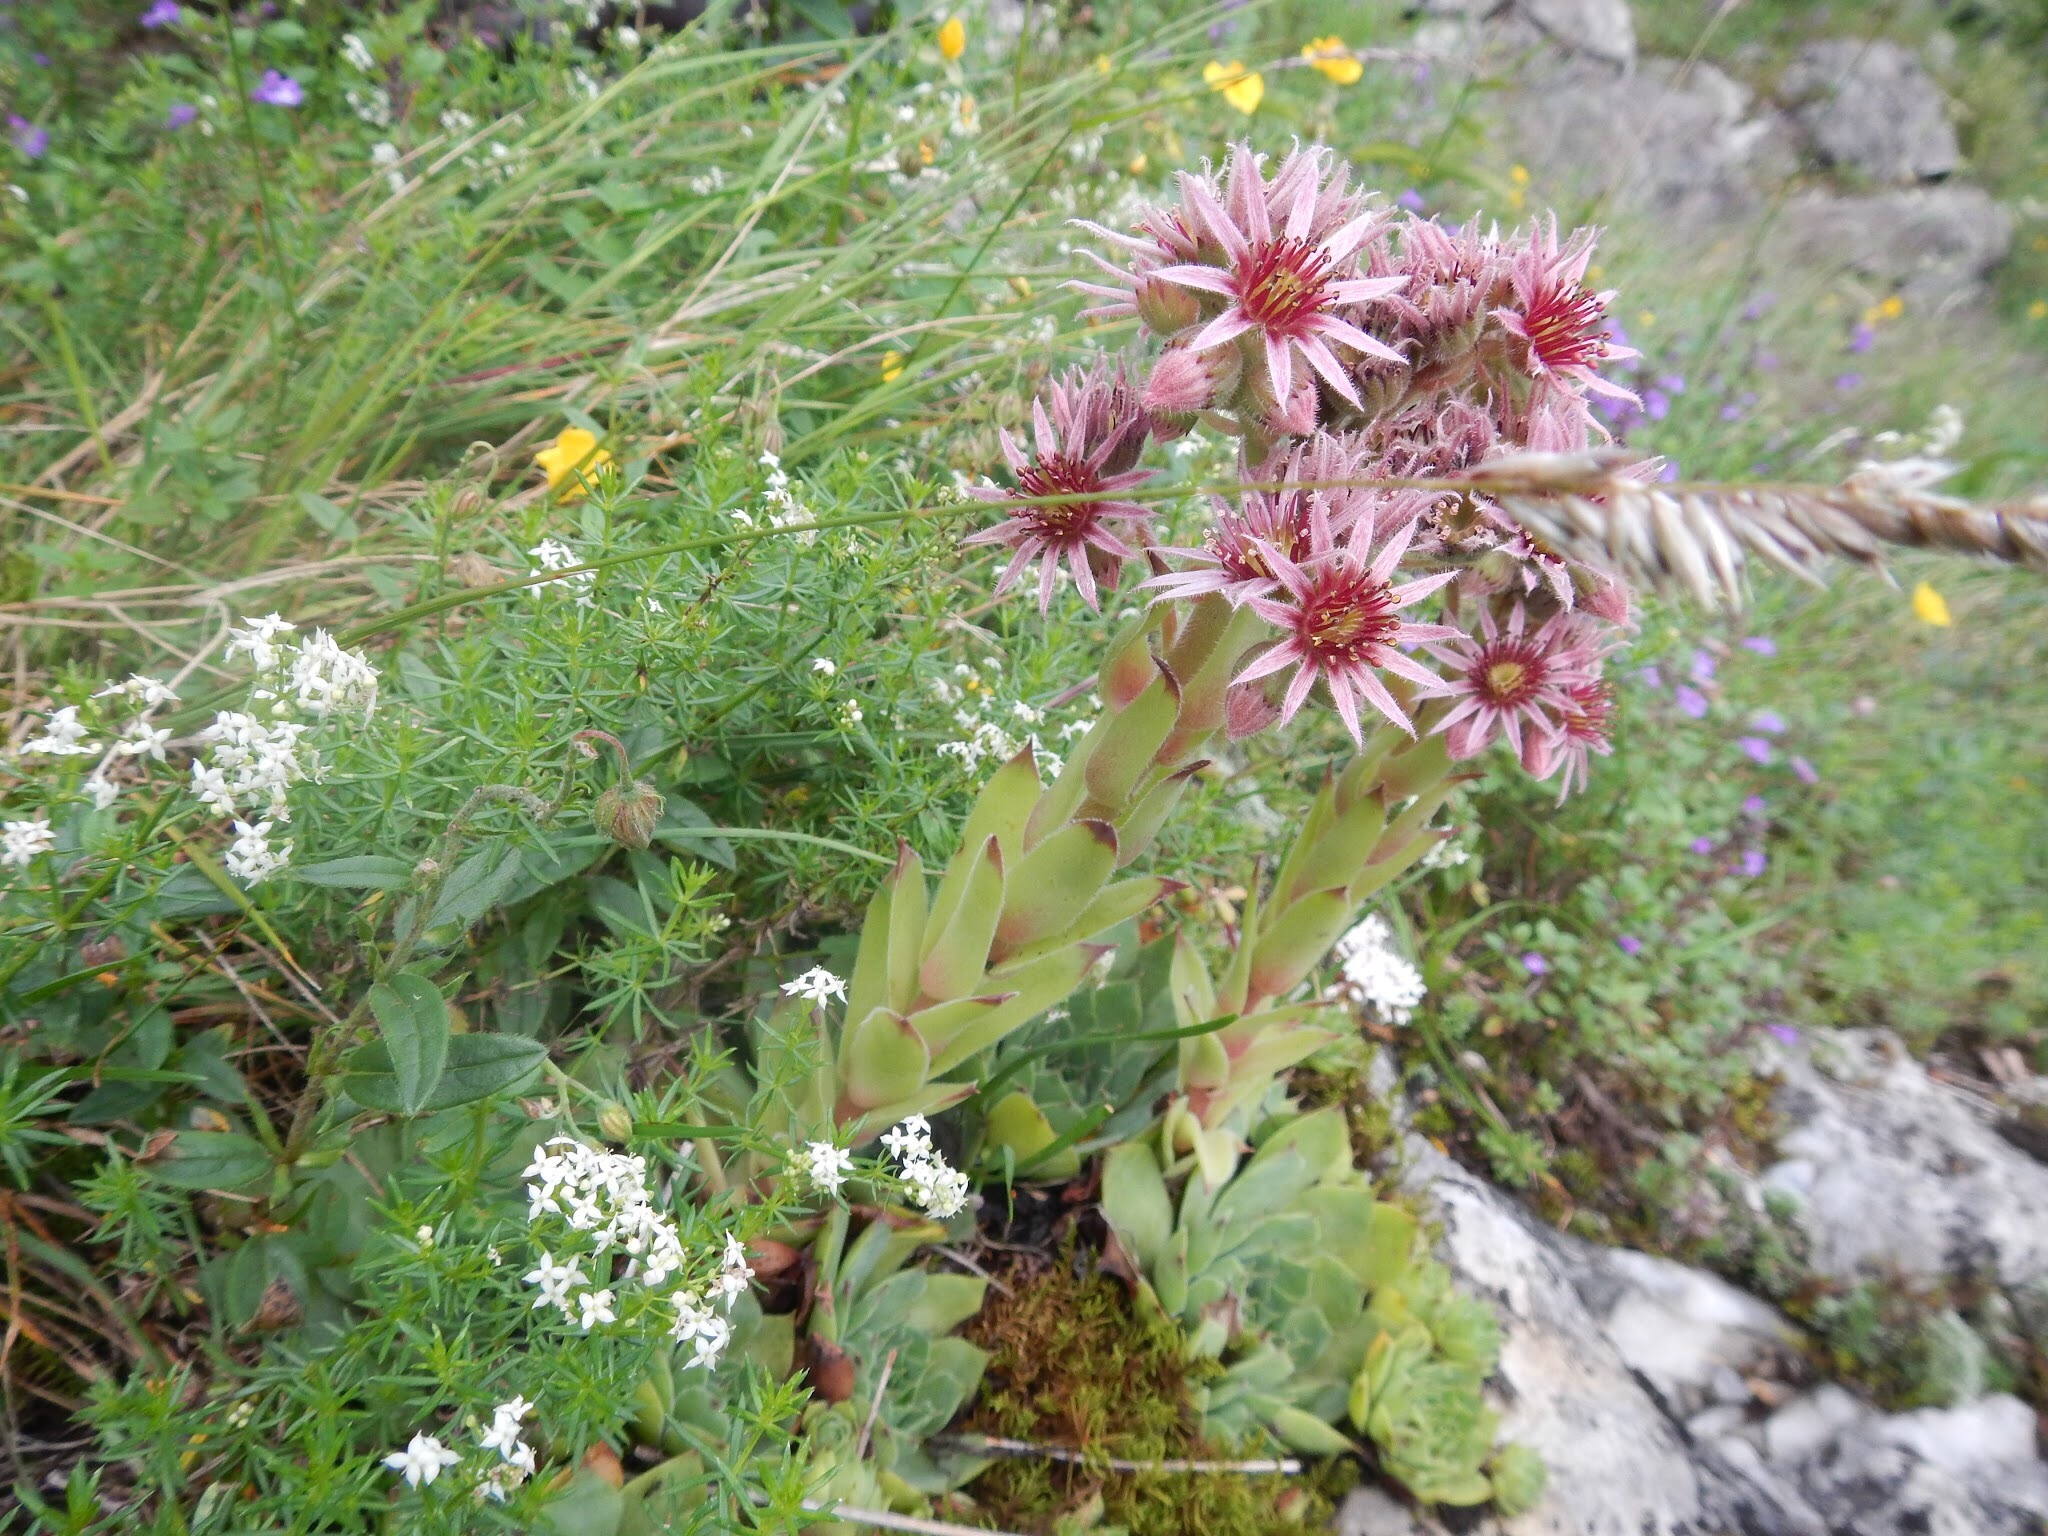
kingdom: Plantae
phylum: Tracheophyta
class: Magnoliopsida
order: Saxifragales
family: Crassulaceae
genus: Sempervivum
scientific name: Sempervivum tectorum
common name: House-leek
